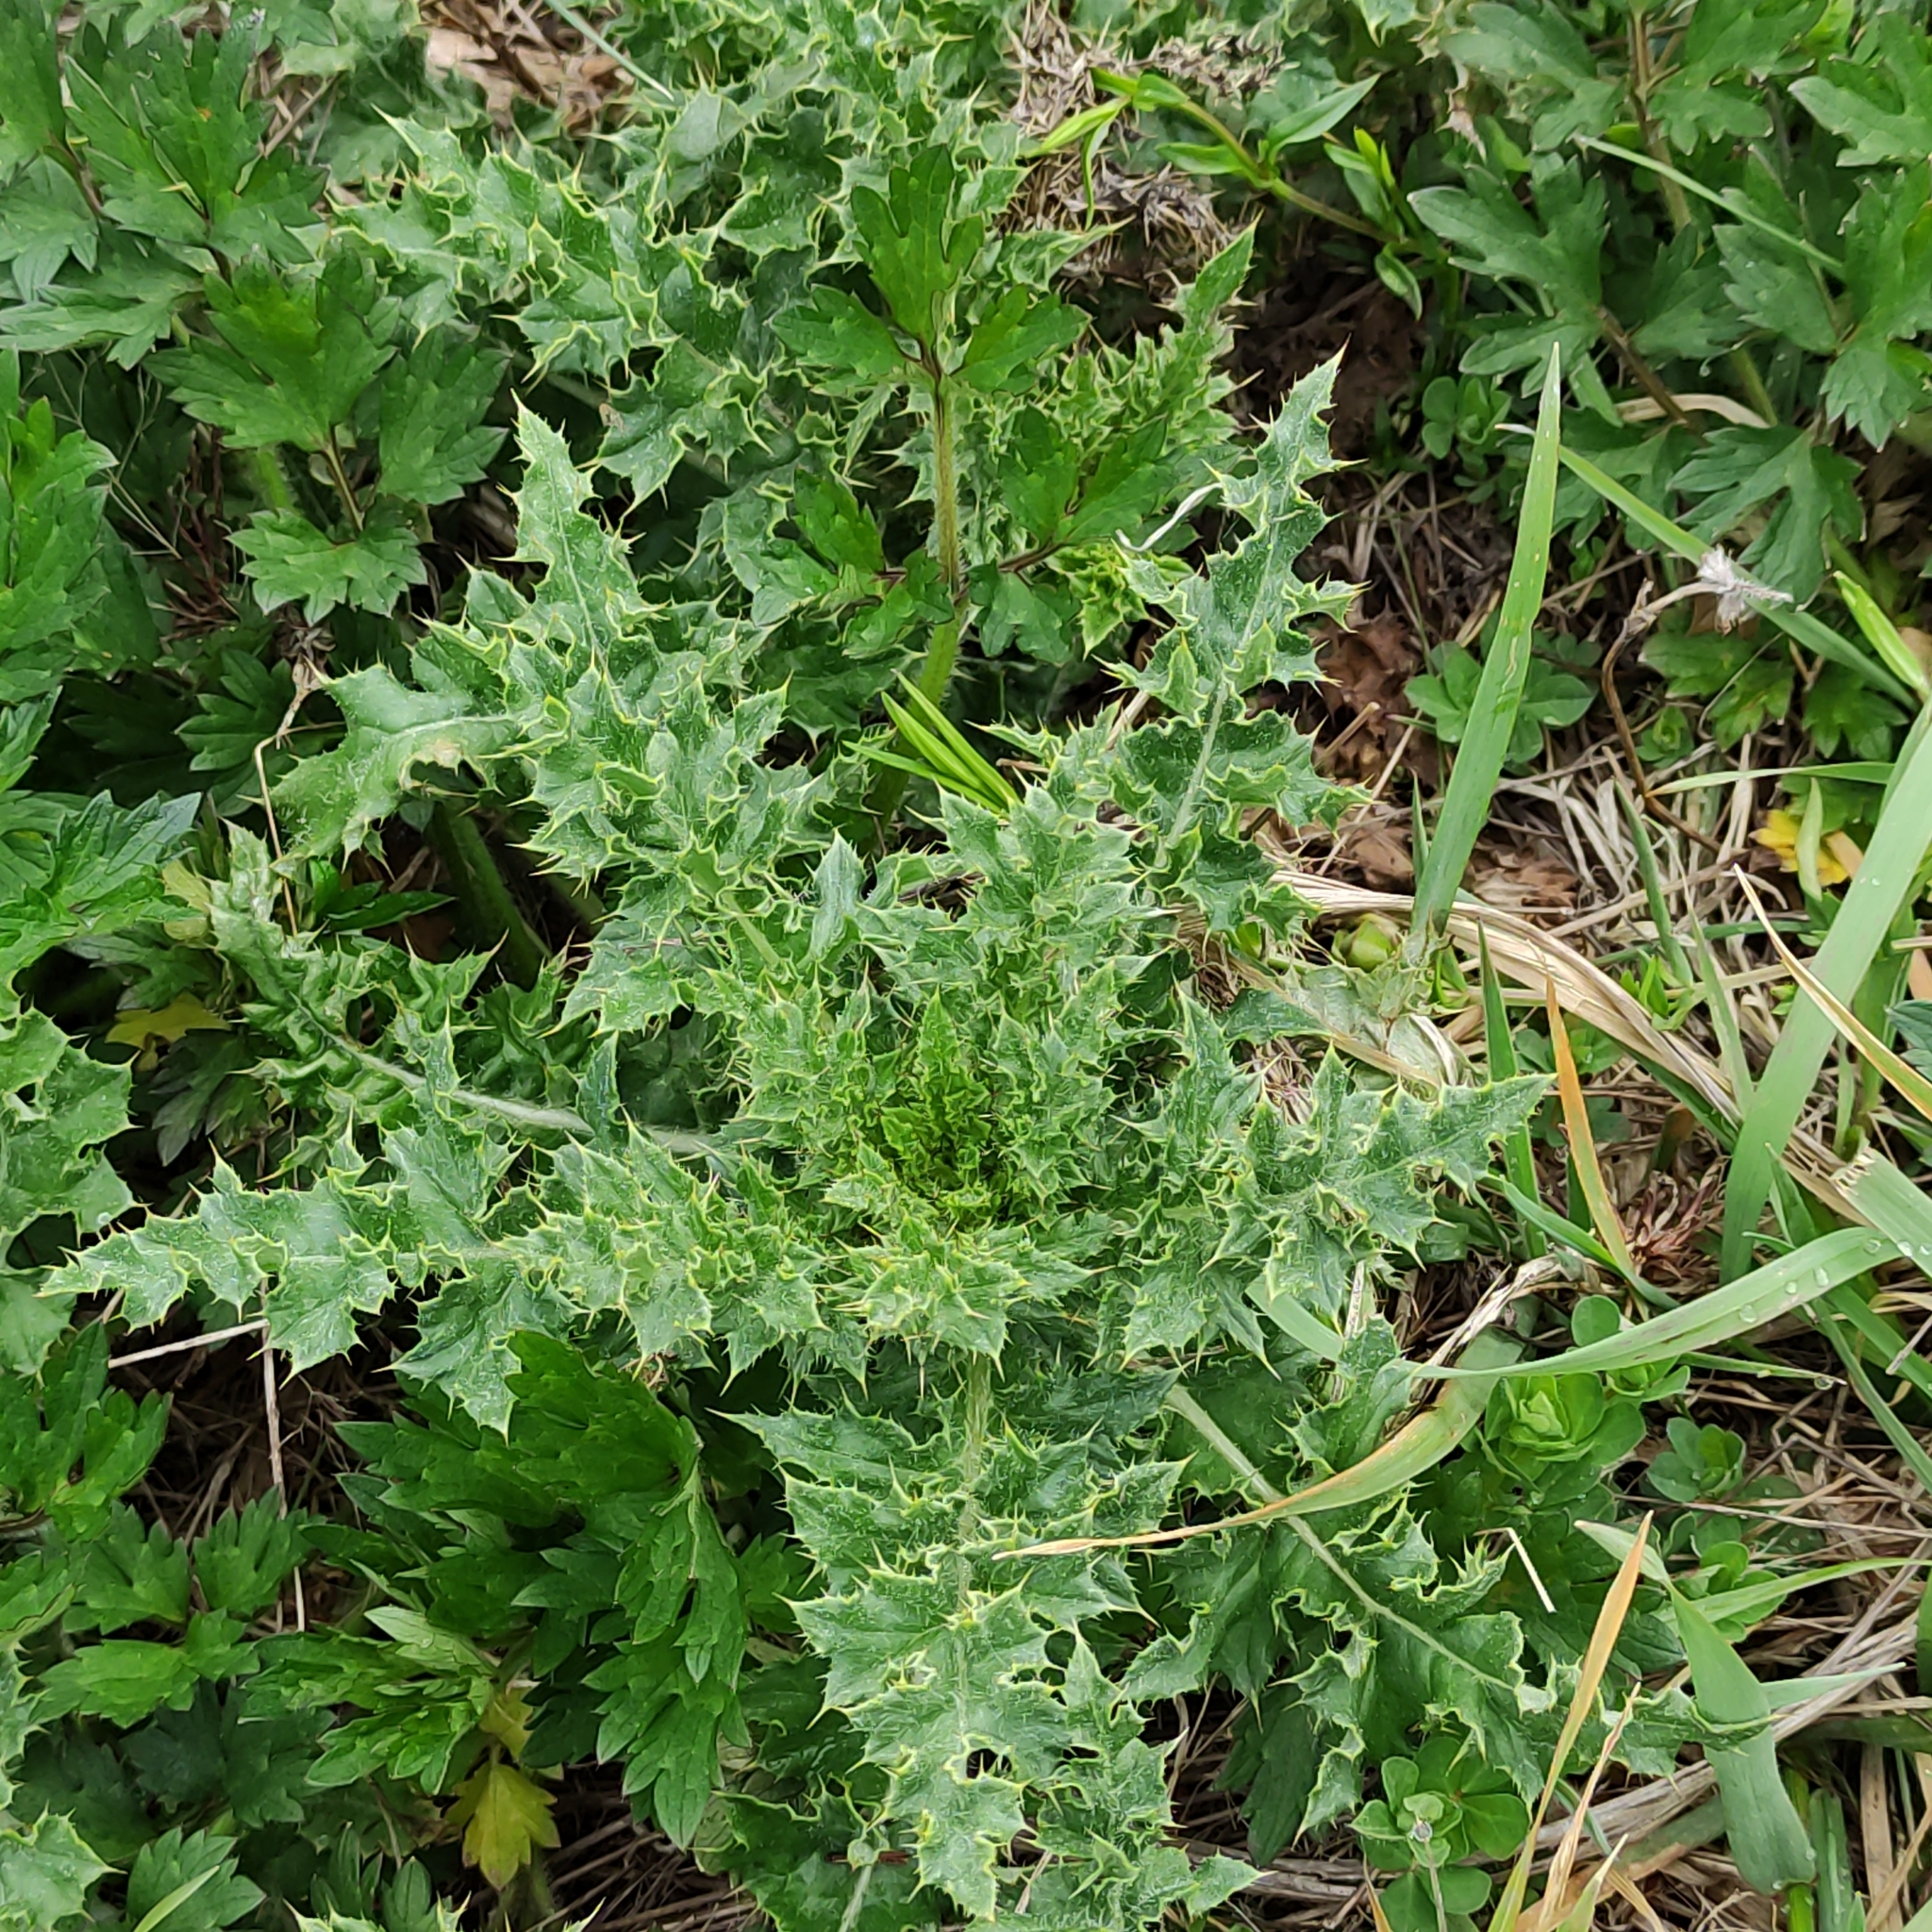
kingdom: Plantae
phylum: Tracheophyta
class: Magnoliopsida
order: Asterales
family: Asteraceae
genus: Cirsium
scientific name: Cirsium arvense
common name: Creeping thistle
